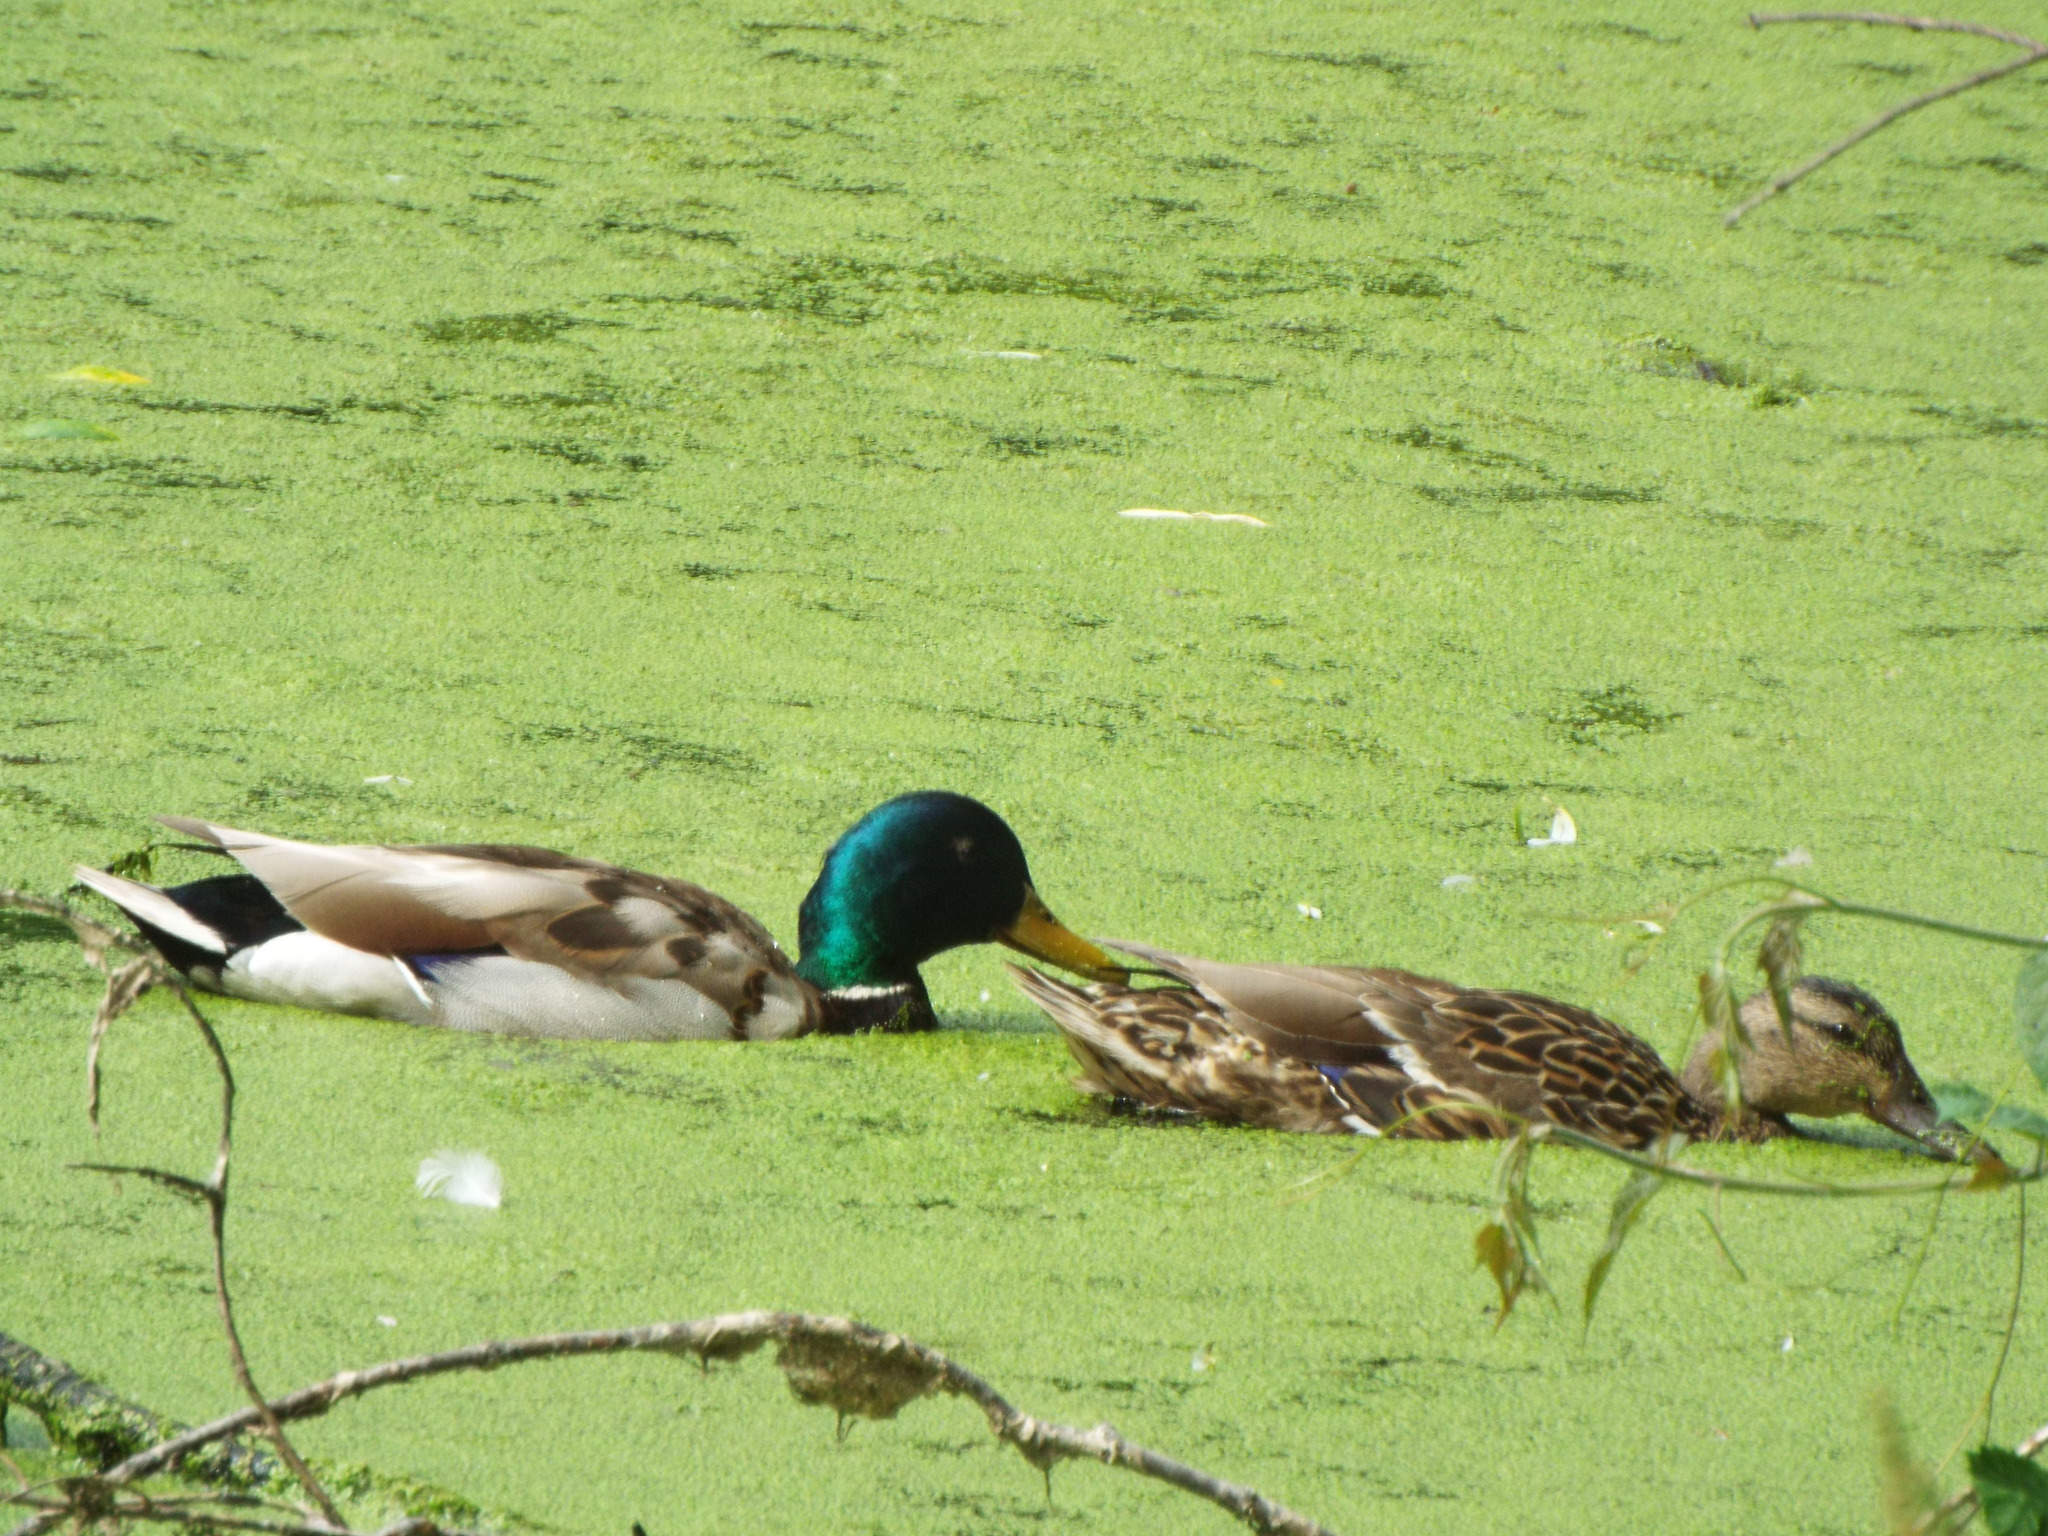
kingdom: Animalia
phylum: Chordata
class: Aves
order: Anseriformes
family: Anatidae
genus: Anas
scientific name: Anas platyrhynchos
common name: Mallard
